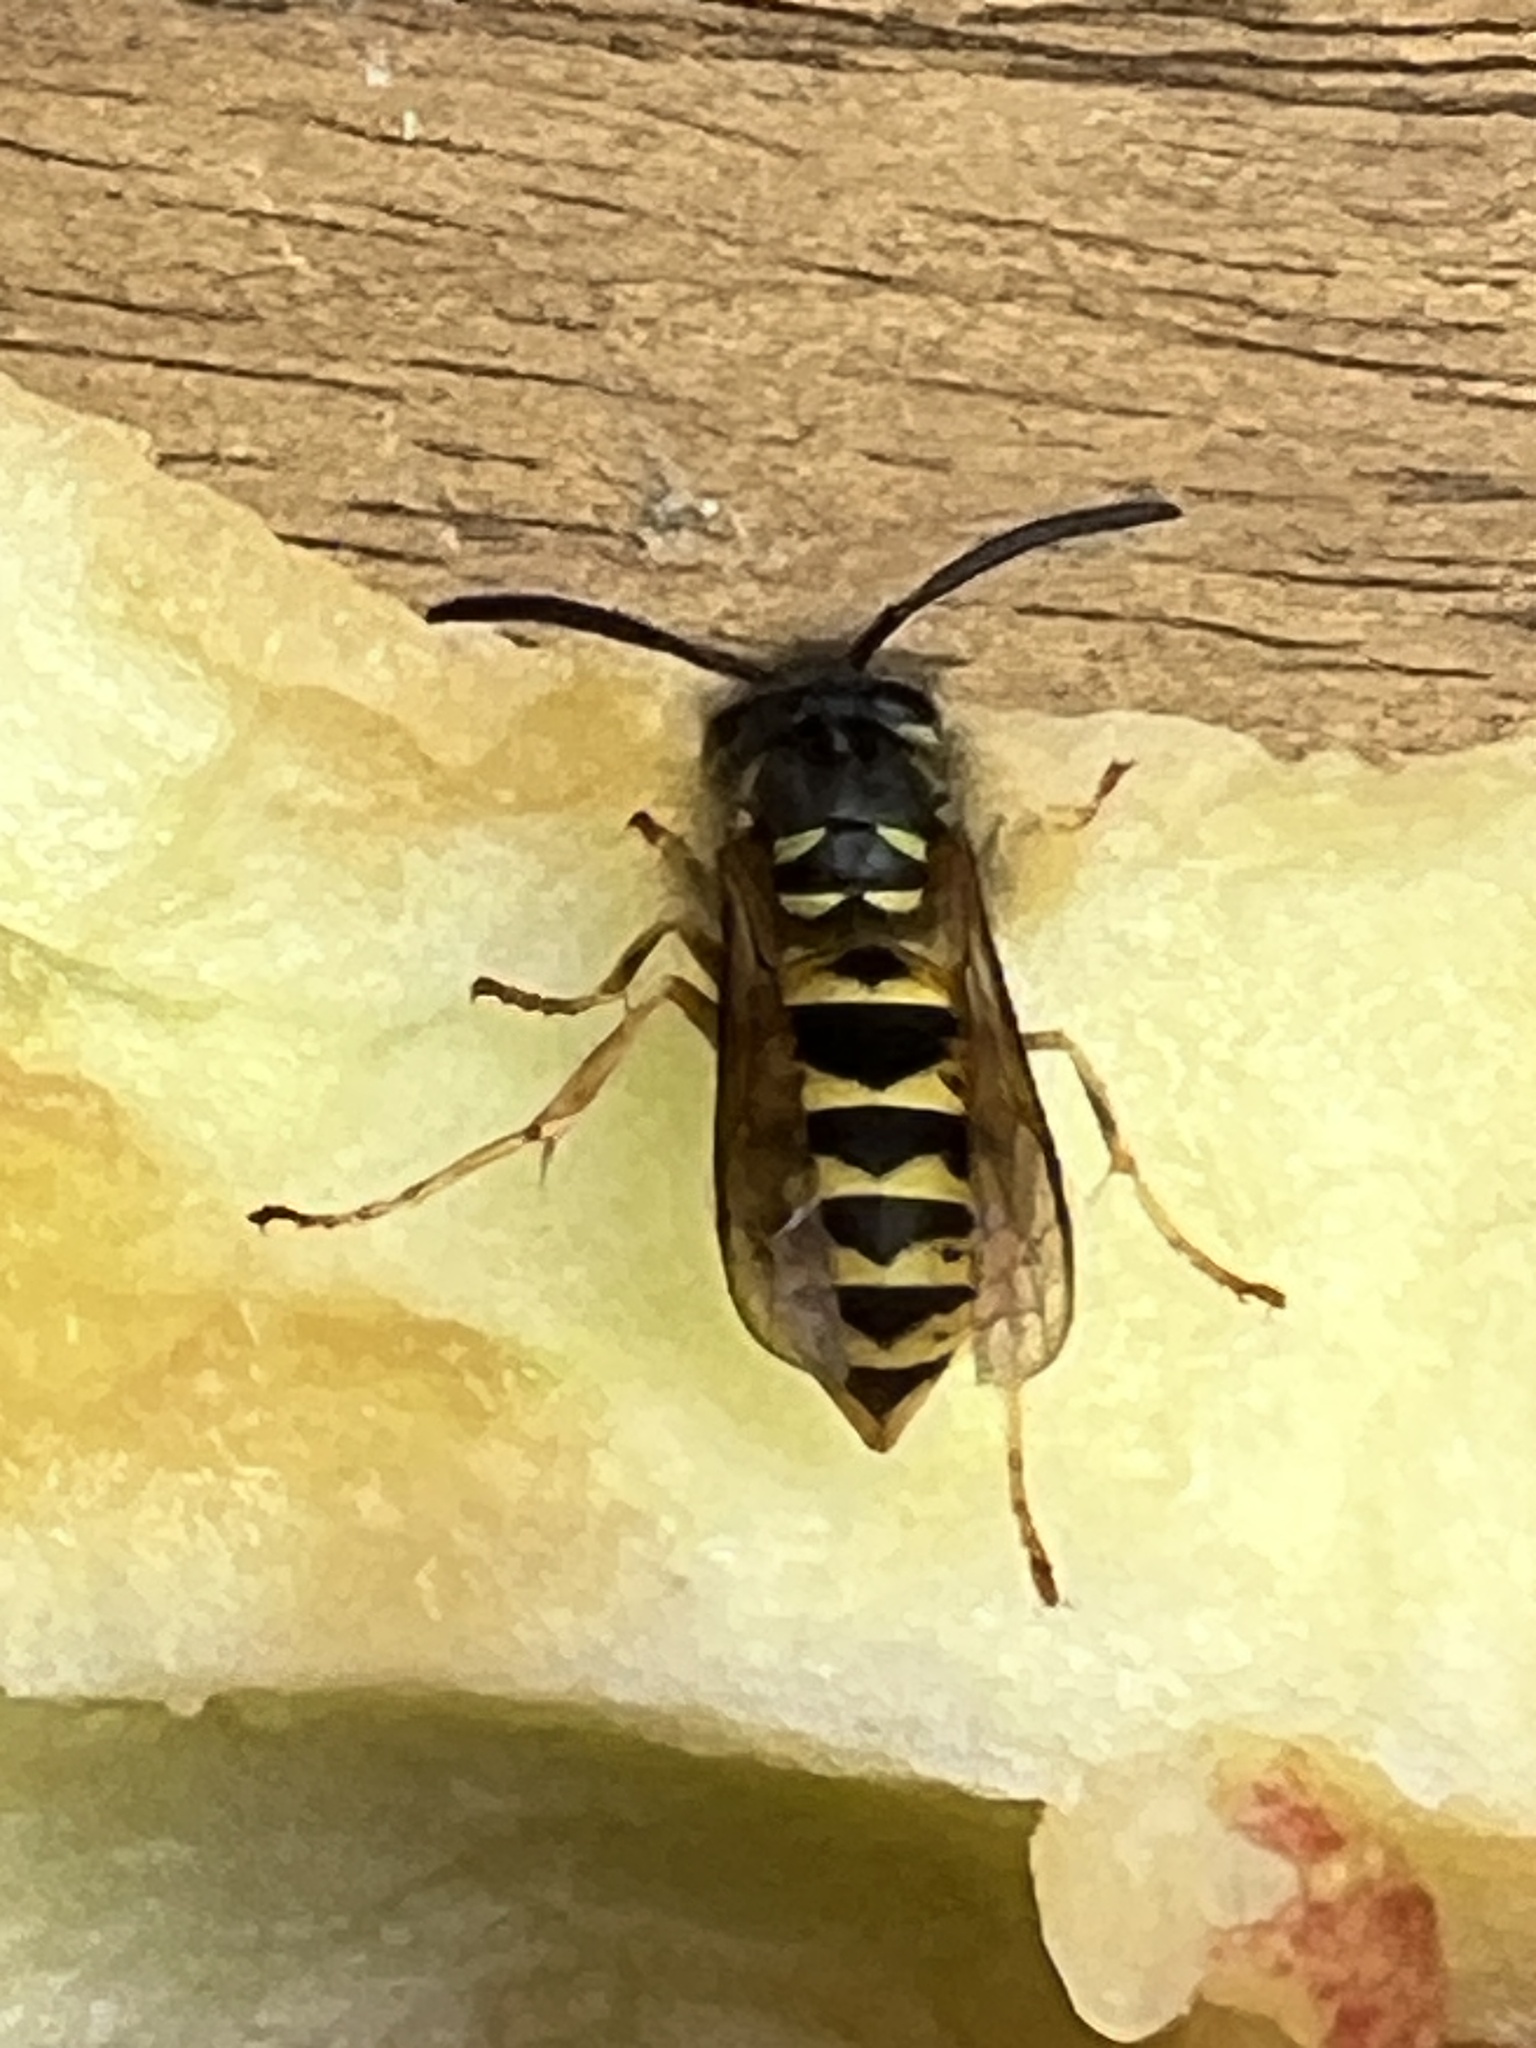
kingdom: Animalia
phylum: Arthropoda
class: Insecta
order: Hymenoptera
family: Vespidae
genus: Vespula
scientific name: Vespula germanica
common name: German wasp
